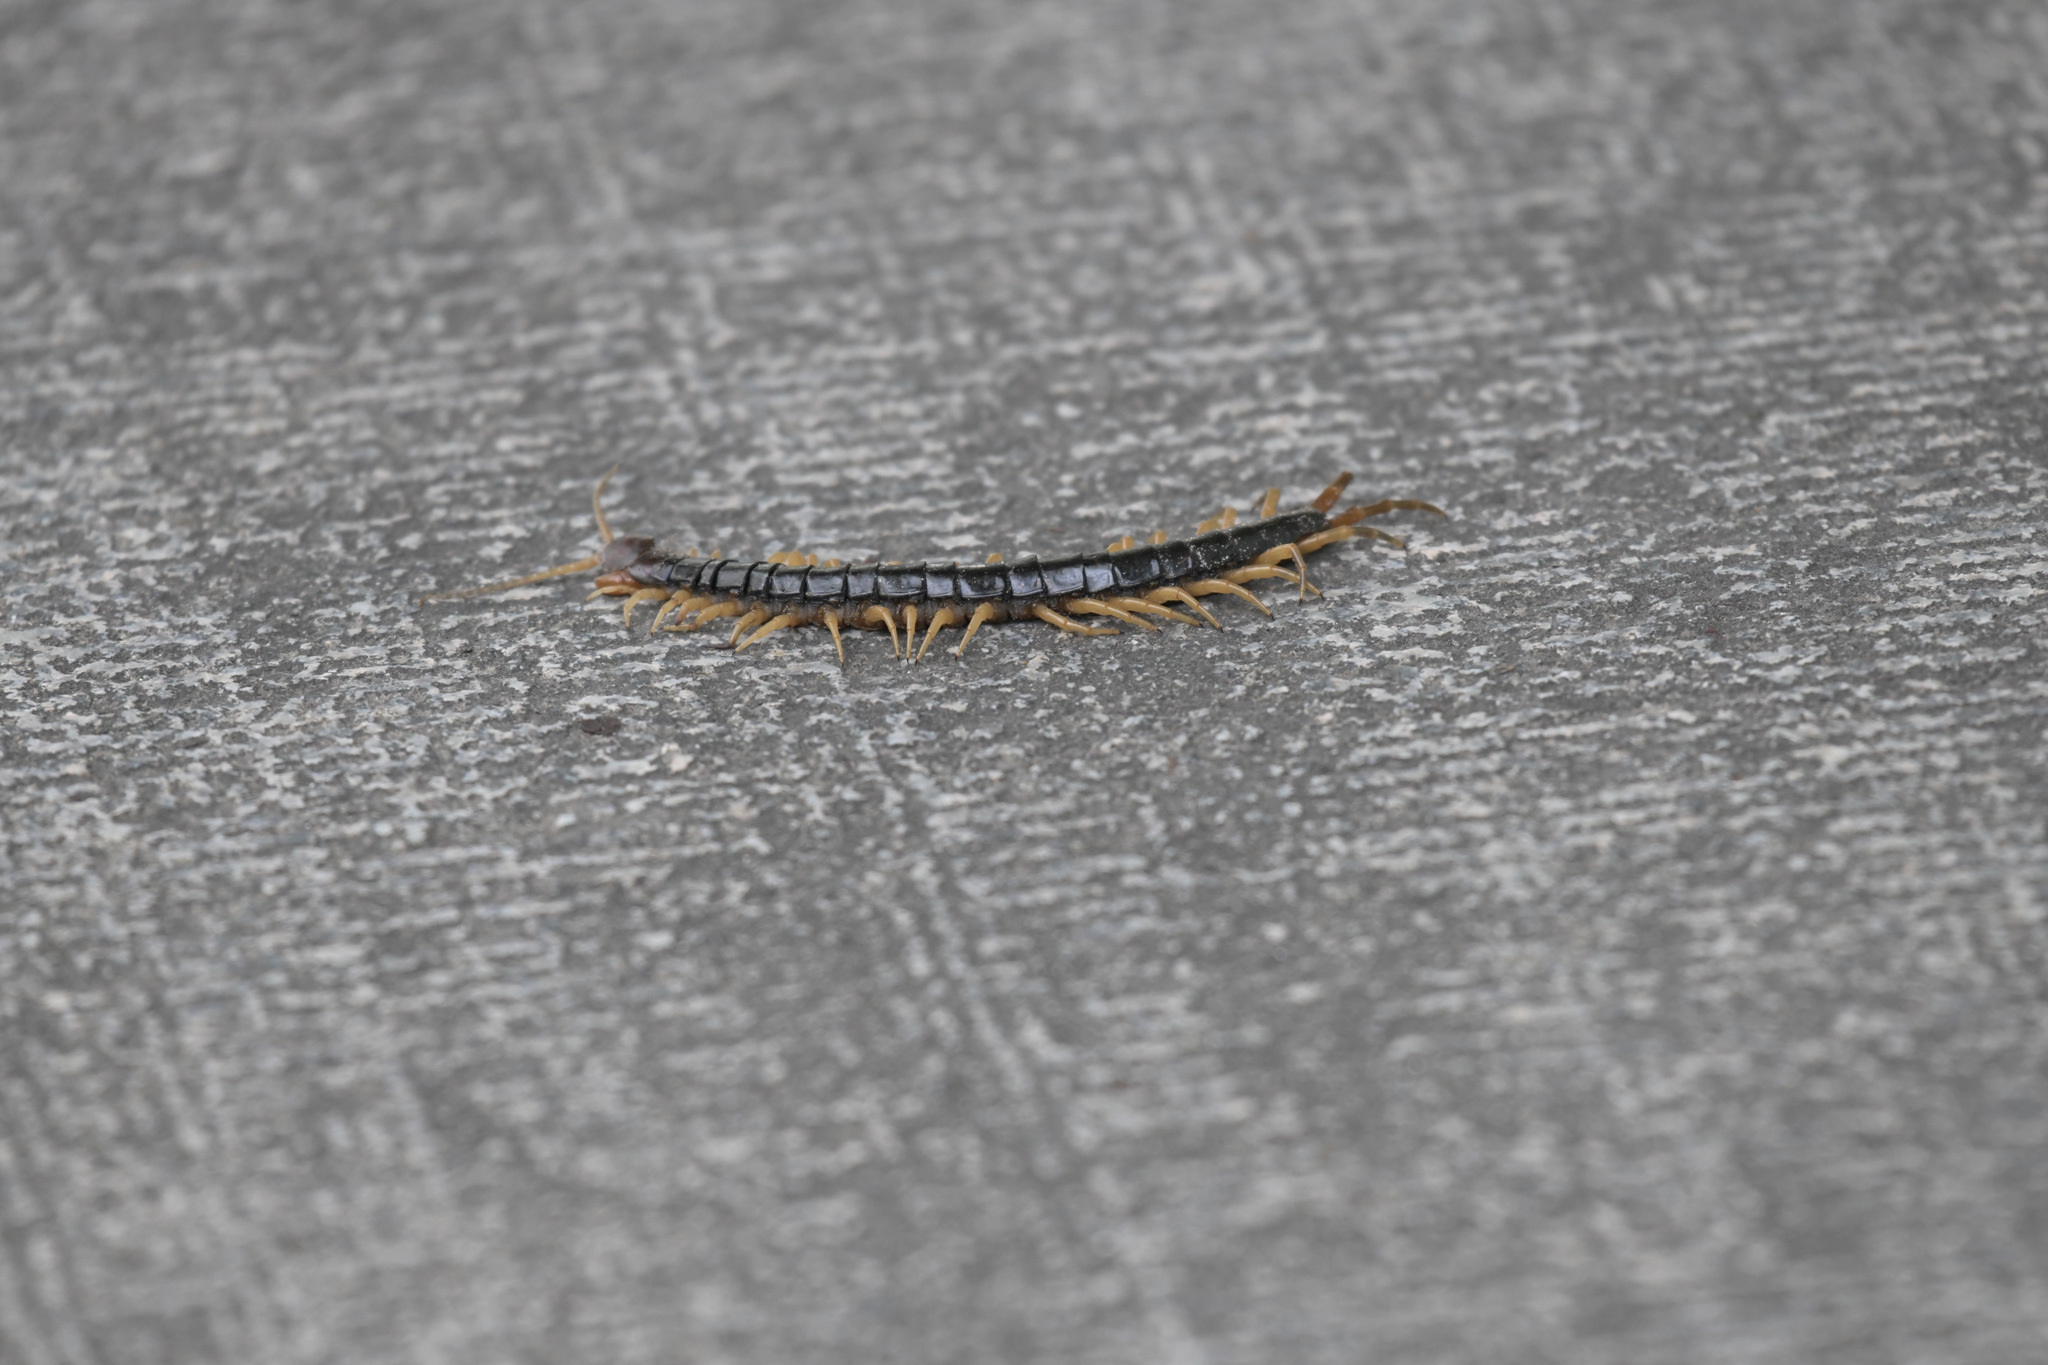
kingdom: Animalia
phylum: Arthropoda
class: Chilopoda
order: Scolopendromorpha
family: Scolopendridae
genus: Scolopendra
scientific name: Scolopendra mutilans
